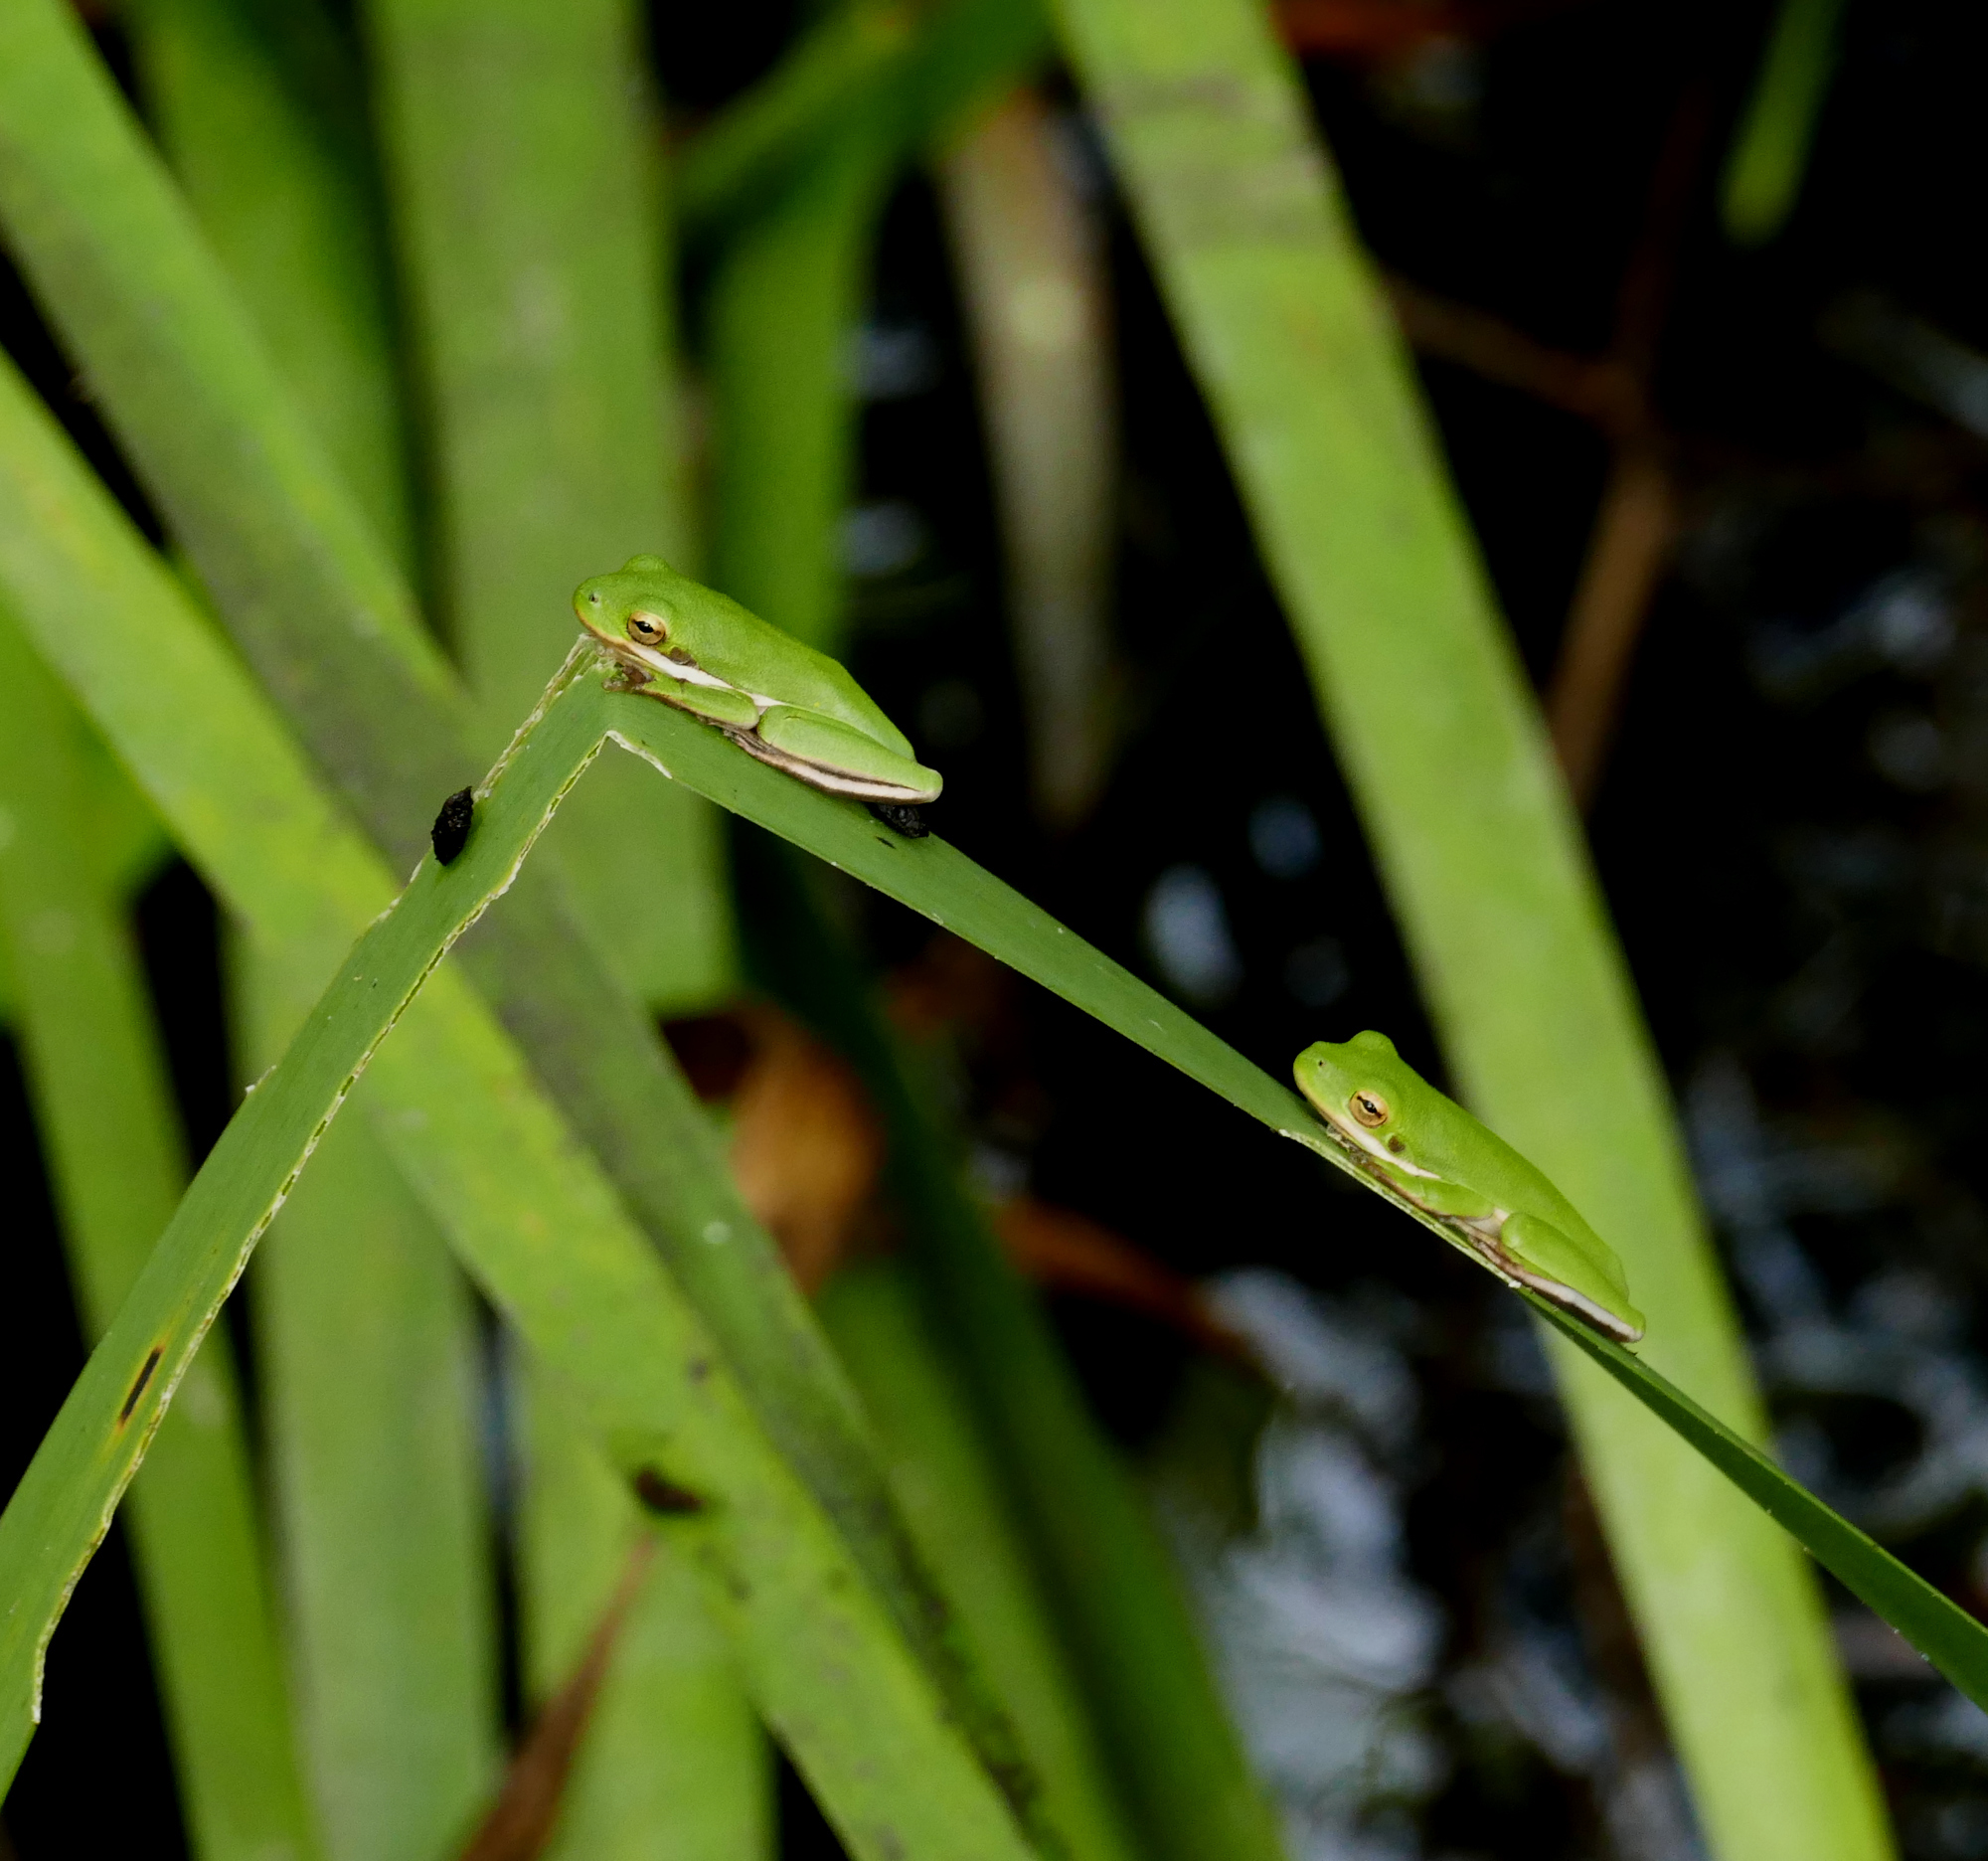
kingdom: Animalia
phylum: Chordata
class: Amphibia
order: Anura
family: Hylidae
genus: Dryophytes
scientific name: Dryophytes cinereus
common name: Green treefrog
